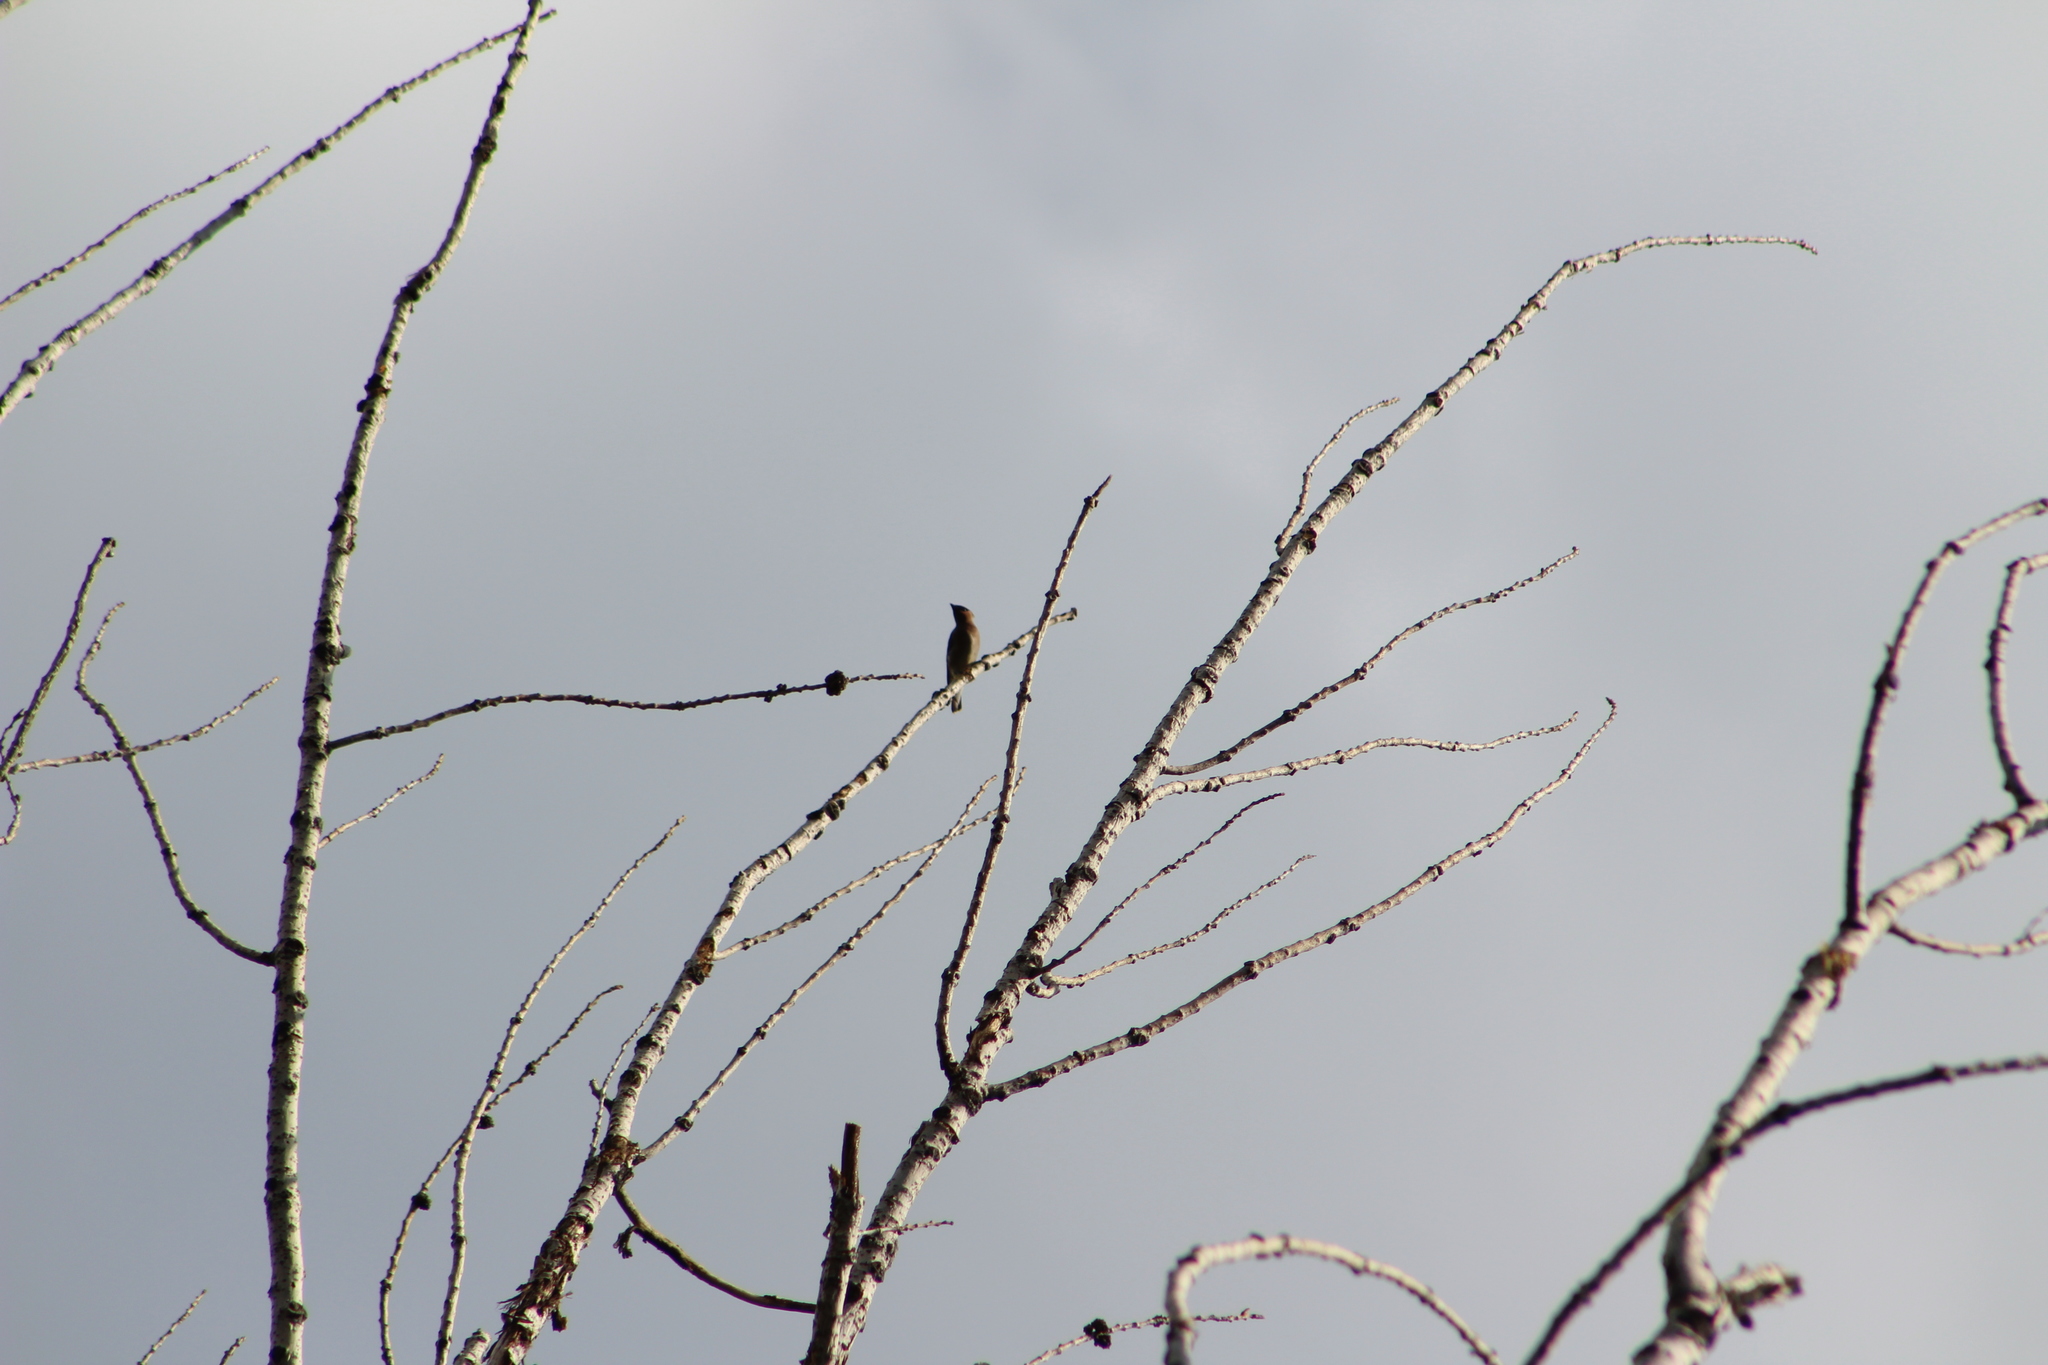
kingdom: Animalia
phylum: Chordata
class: Aves
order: Passeriformes
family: Bombycillidae
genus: Bombycilla
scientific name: Bombycilla cedrorum
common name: Cedar waxwing
